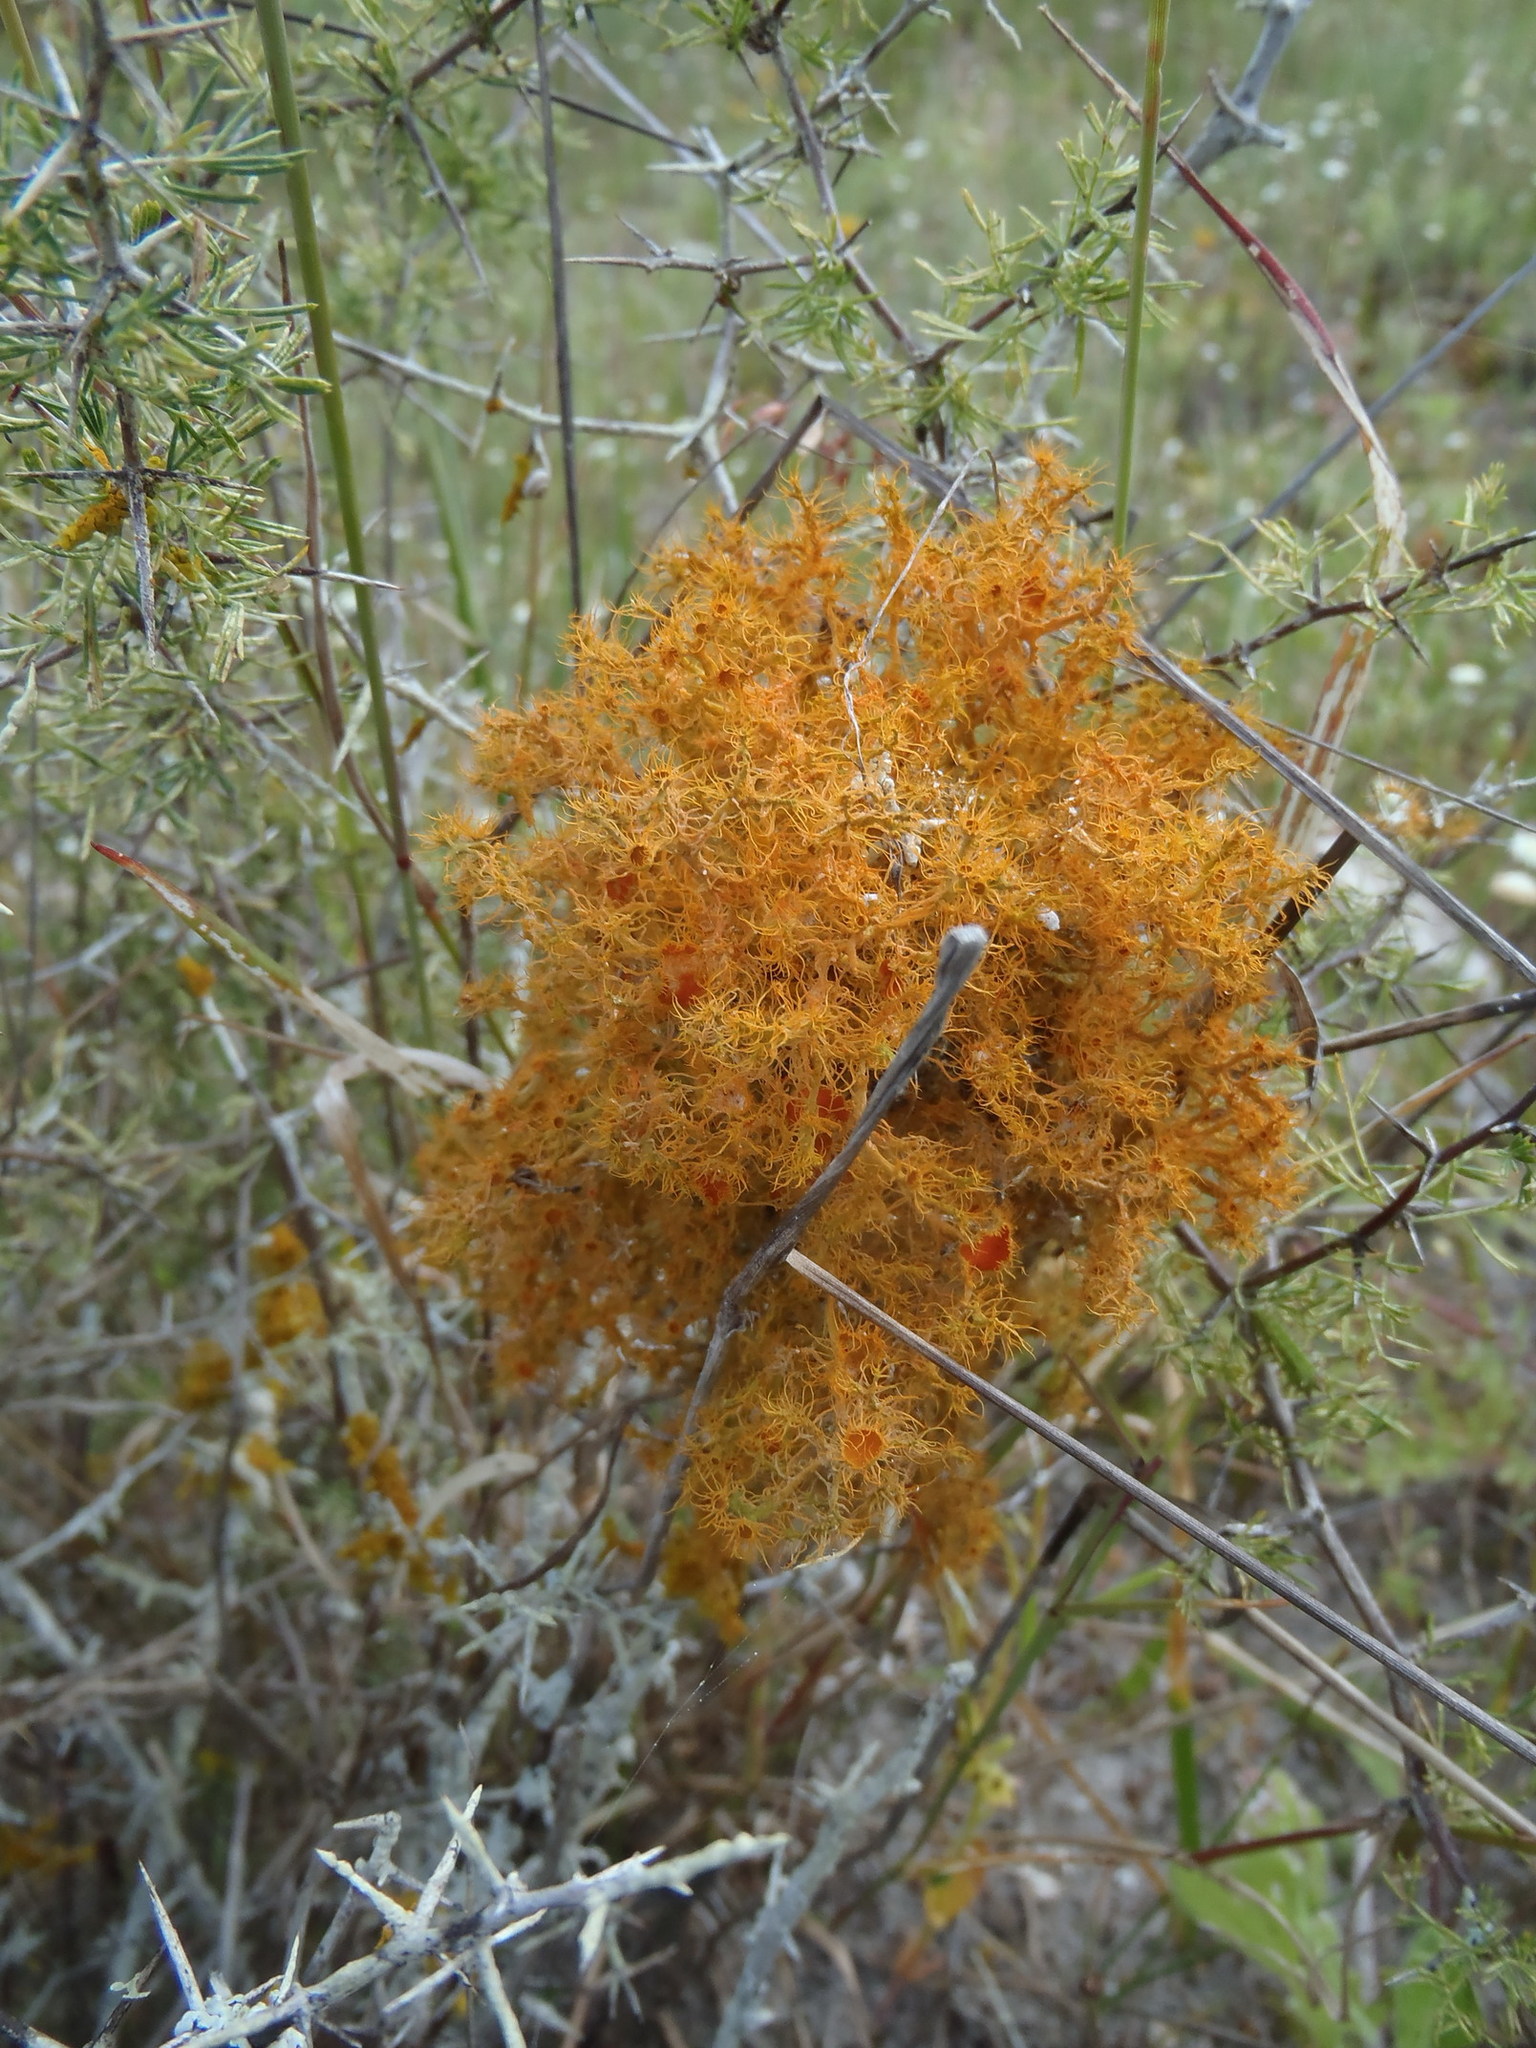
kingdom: Fungi
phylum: Ascomycota
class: Lecanoromycetes
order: Teloschistales
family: Teloschistaceae
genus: Teloschistes
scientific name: Teloschistes puber
